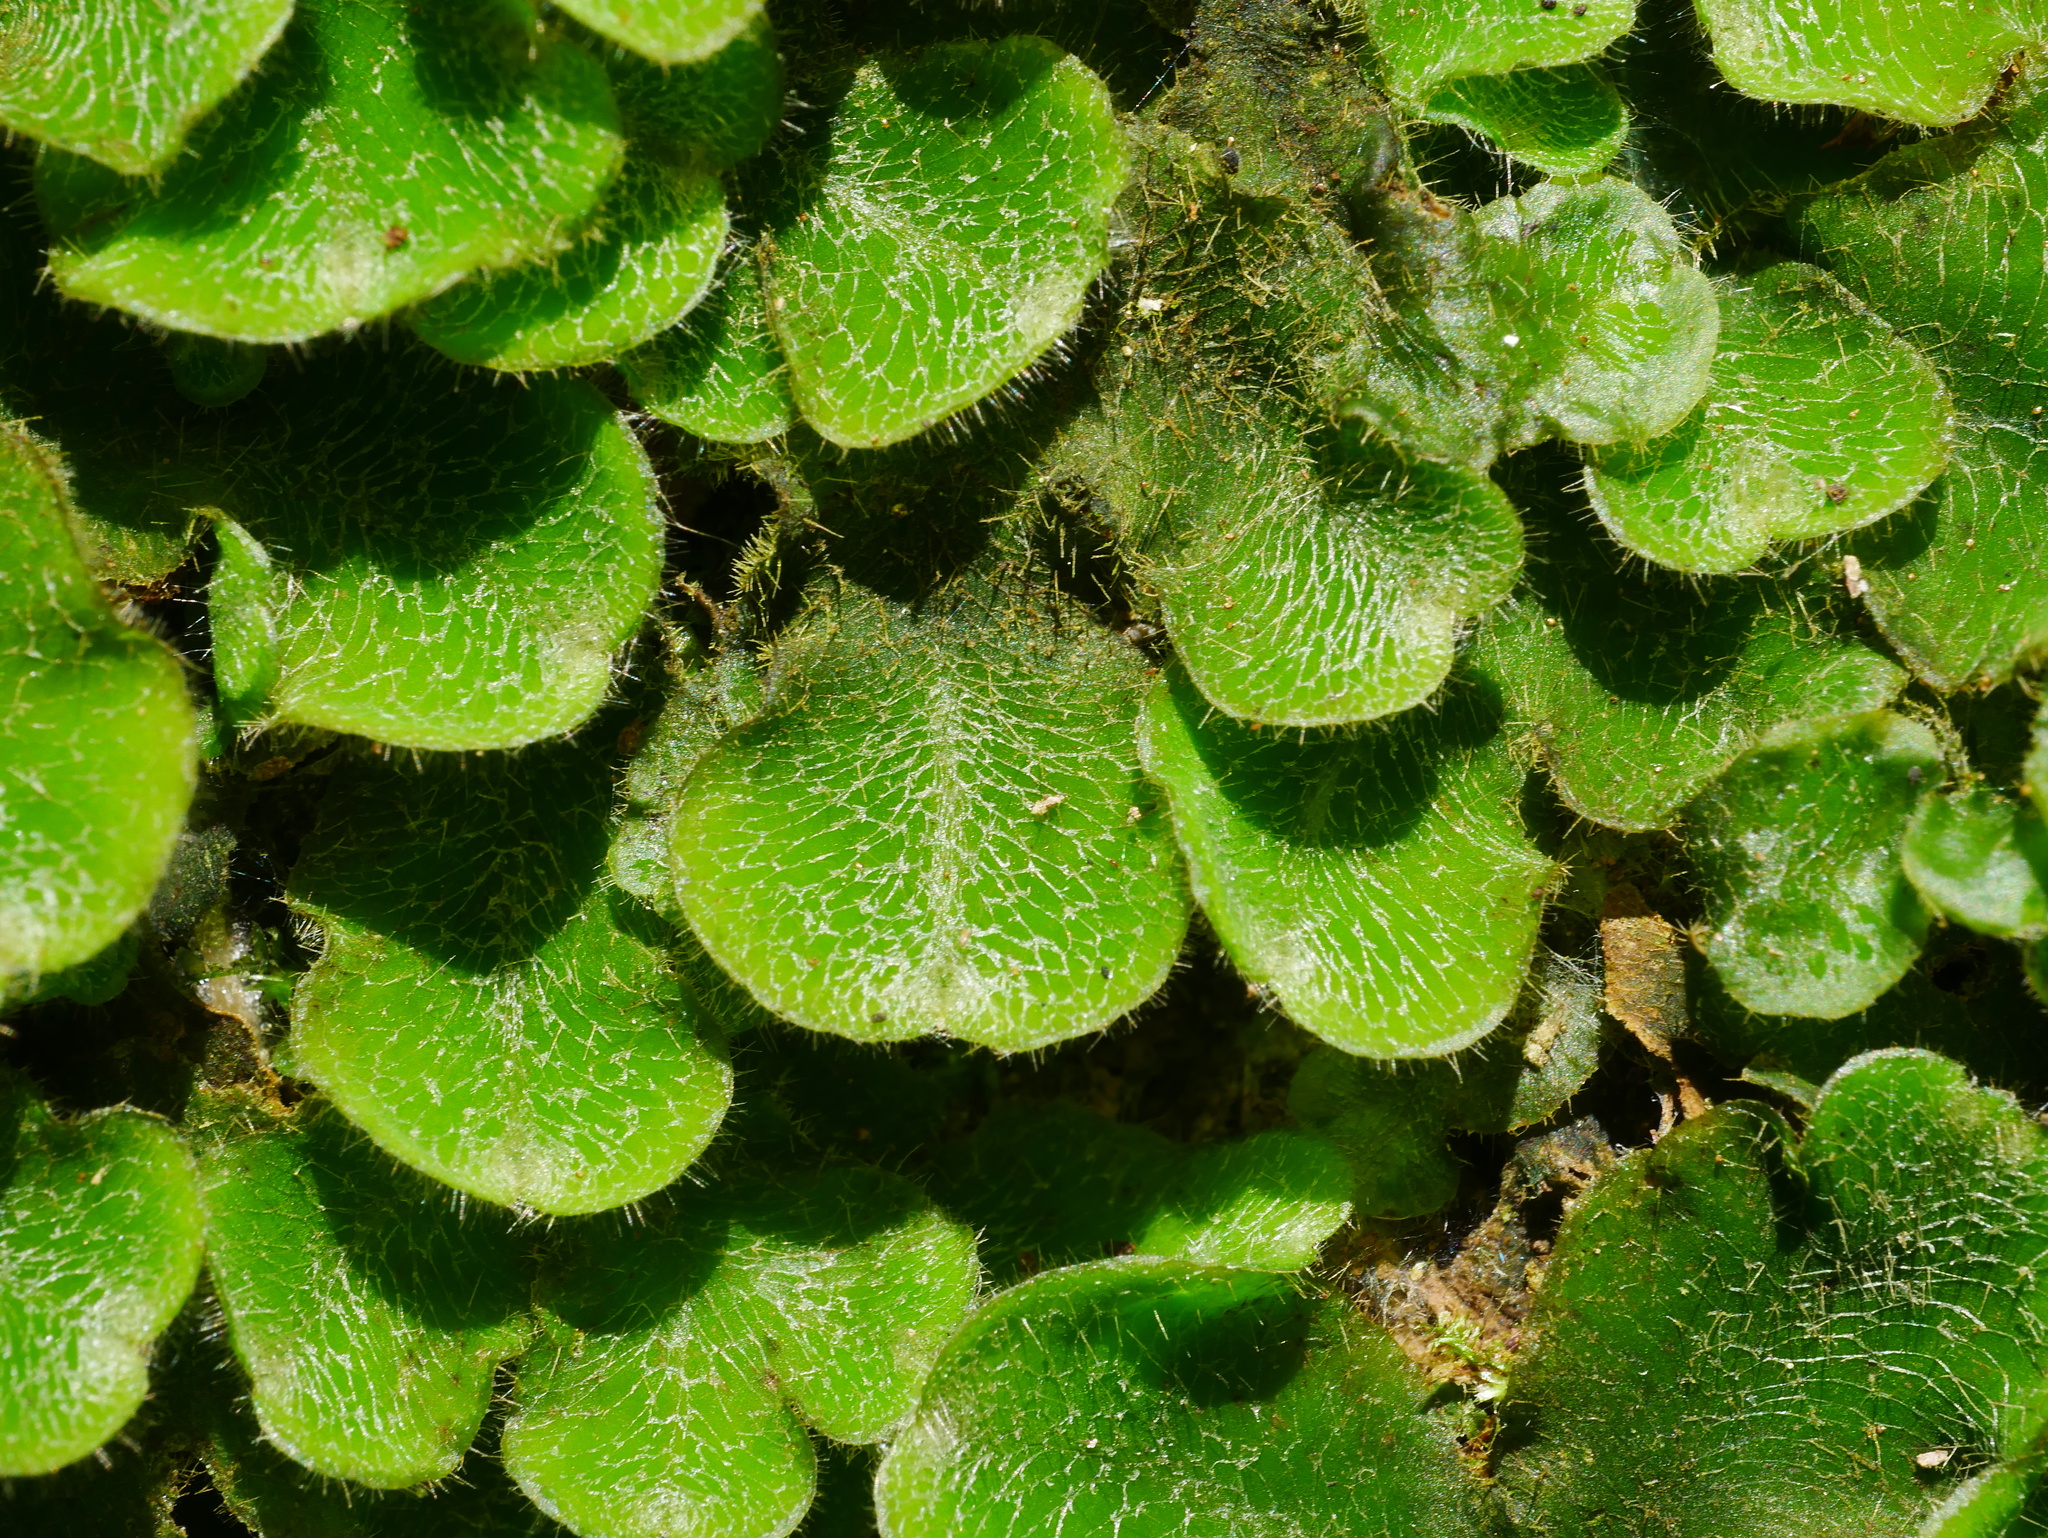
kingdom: Plantae
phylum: Marchantiophyta
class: Marchantiopsida
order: Marchantiales
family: Dumortieraceae
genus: Dumortiera
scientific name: Dumortiera hirsuta
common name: Dumortier's liverwort
